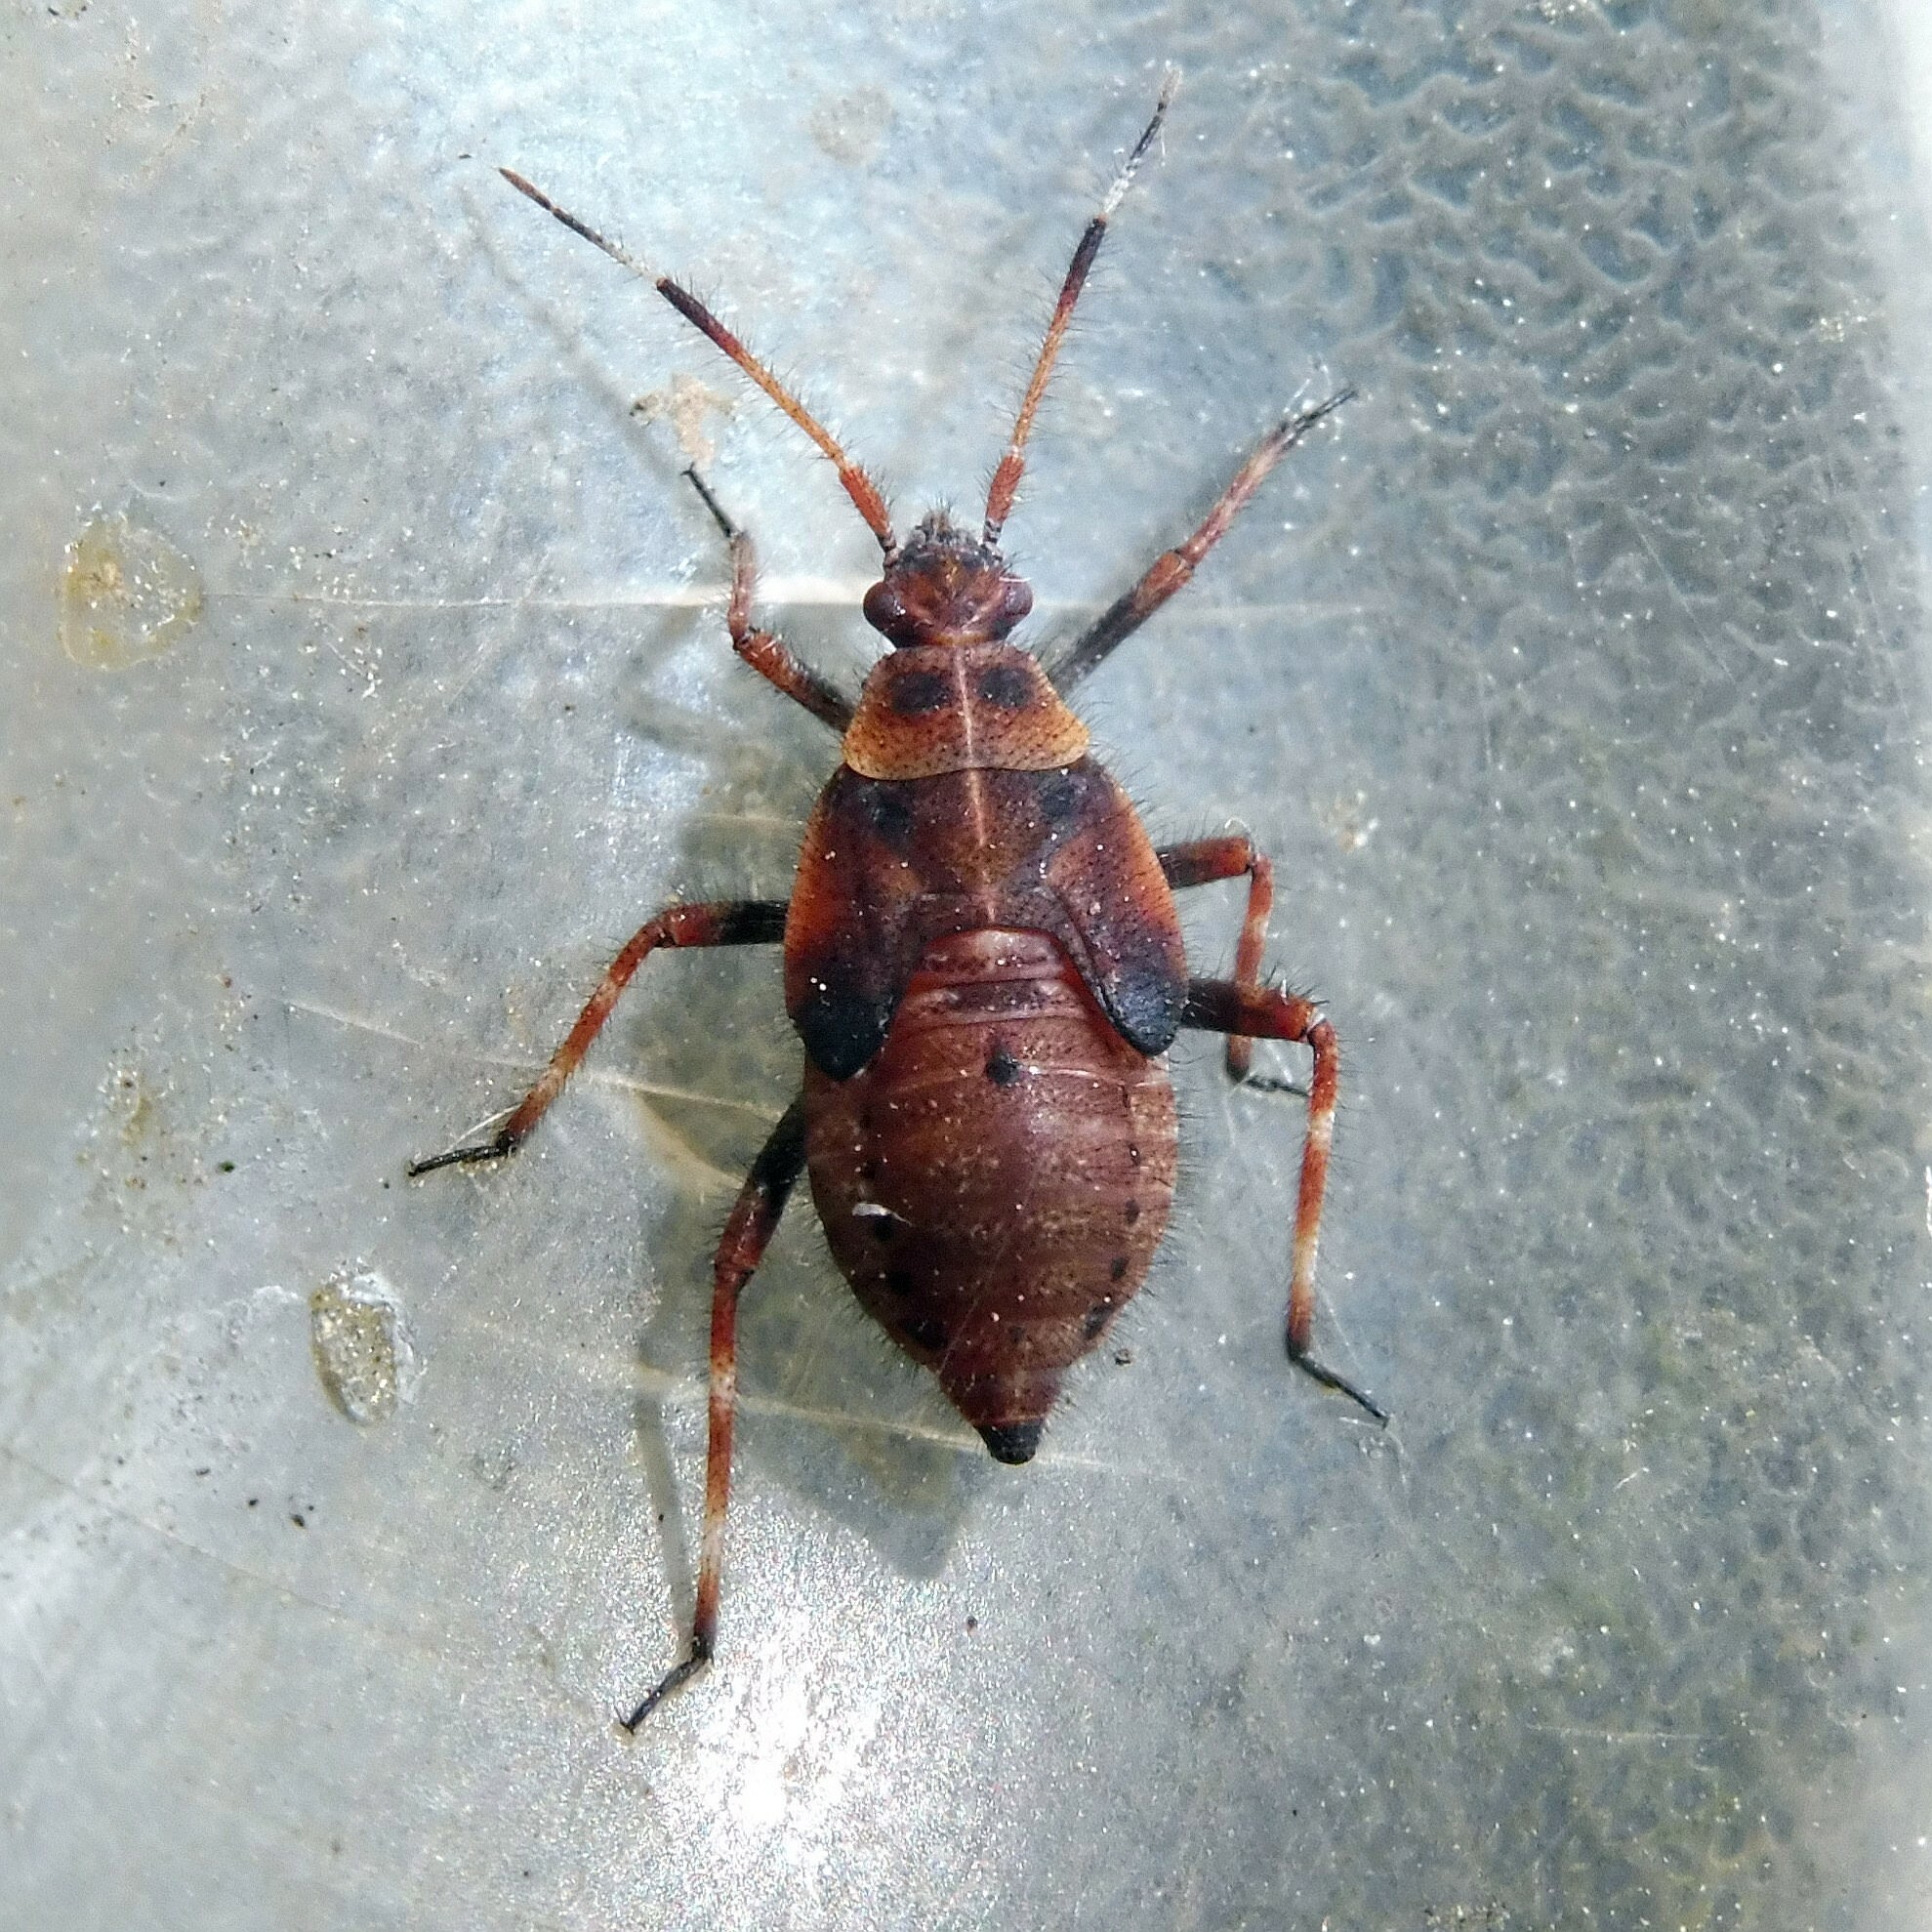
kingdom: Animalia
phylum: Arthropoda
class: Insecta
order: Hemiptera
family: Miridae
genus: Deraeocoris
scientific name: Deraeocoris olivaceus
